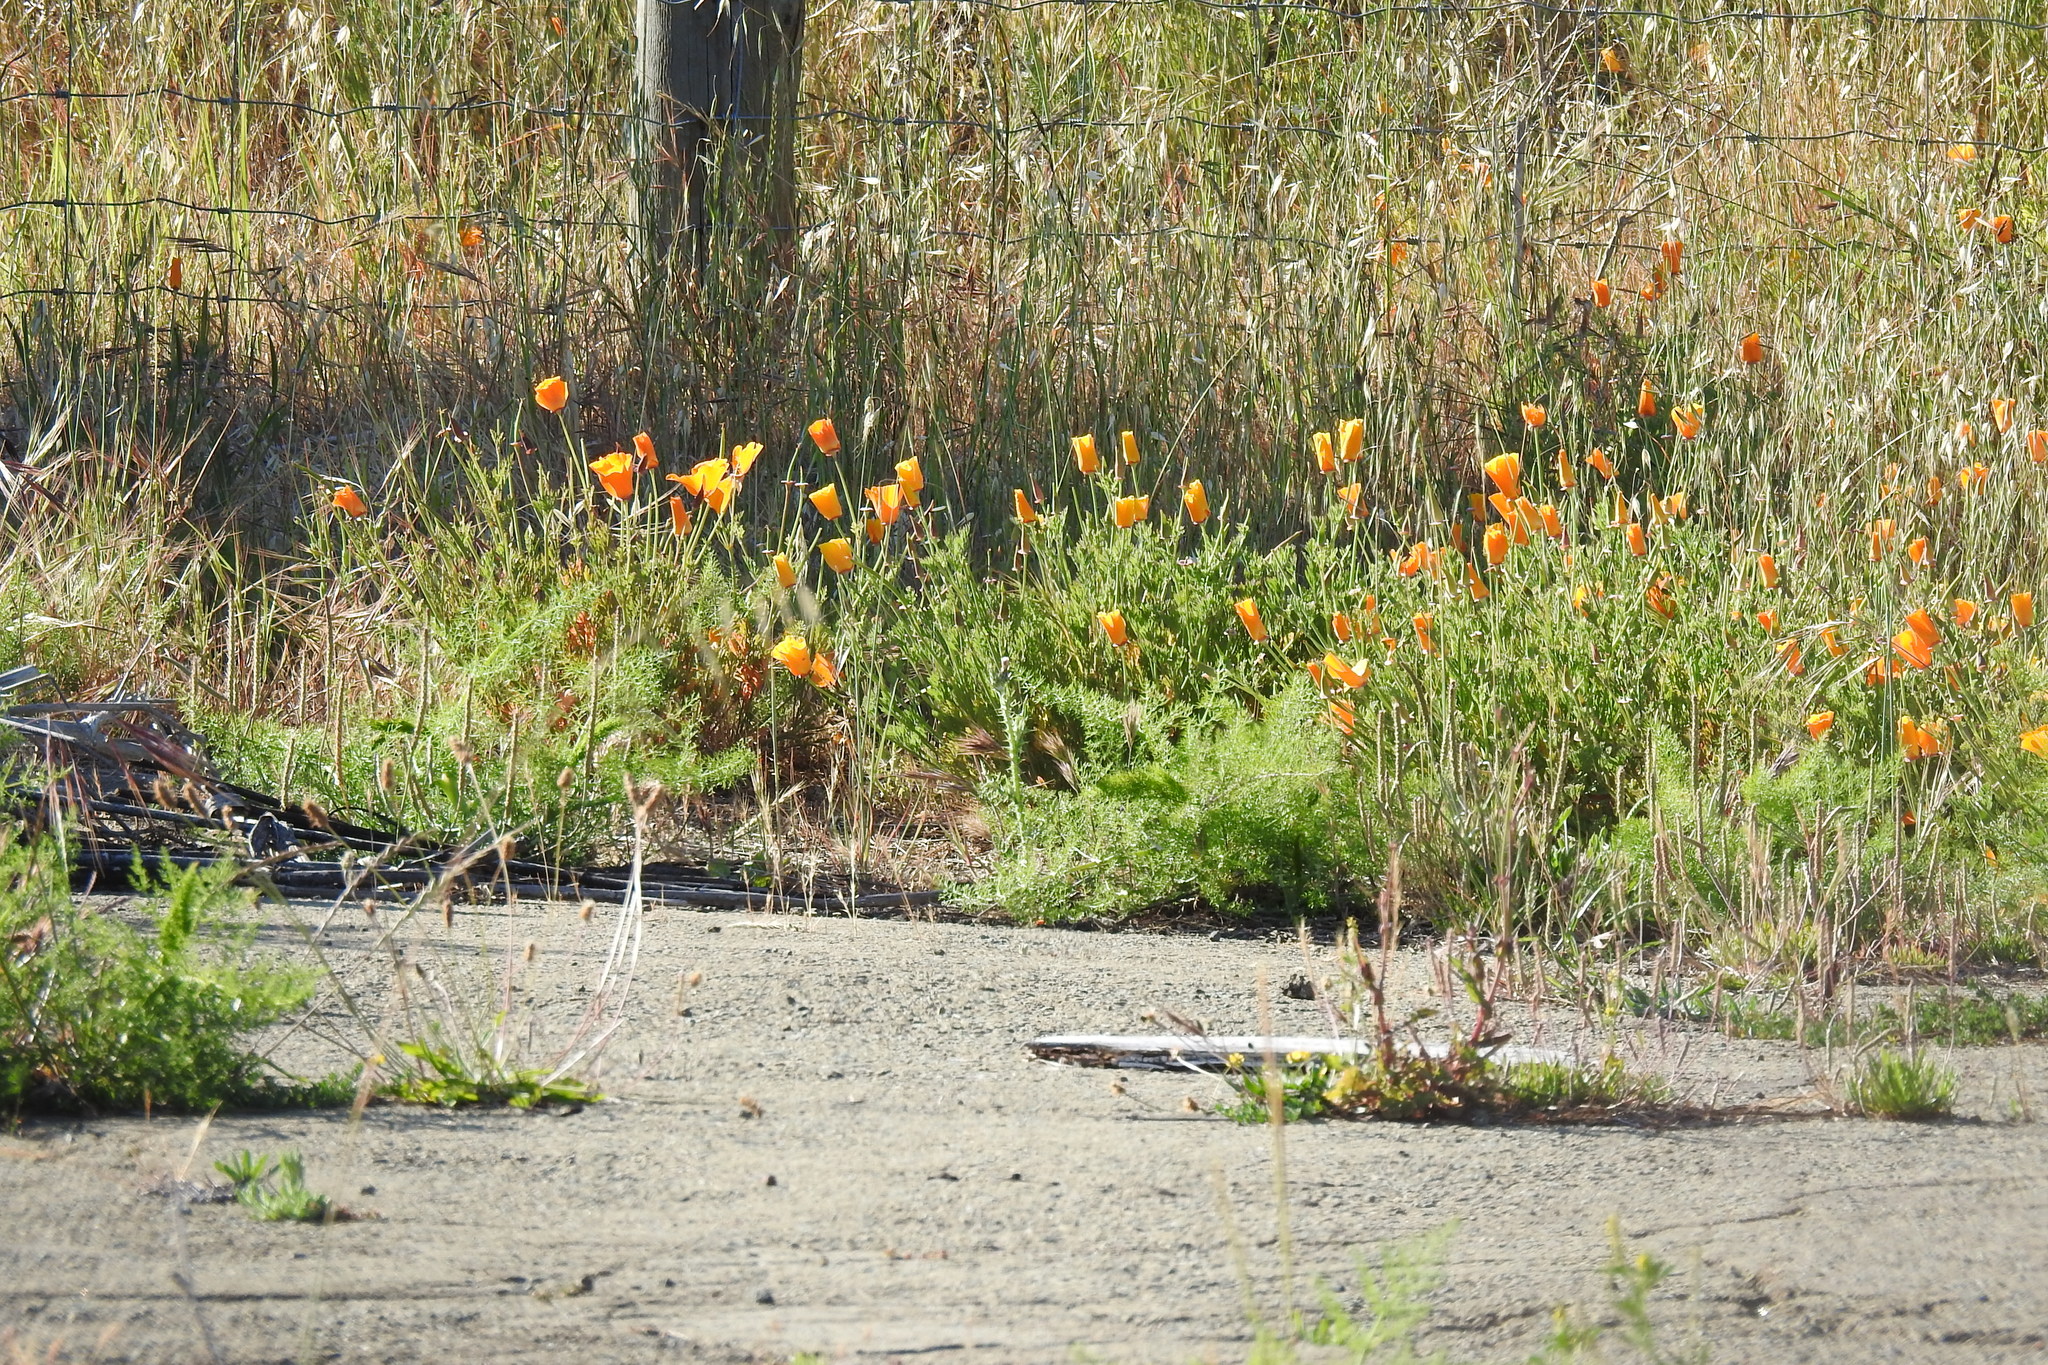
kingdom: Plantae
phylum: Tracheophyta
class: Magnoliopsida
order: Ranunculales
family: Papaveraceae
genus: Eschscholzia
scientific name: Eschscholzia californica
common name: California poppy
